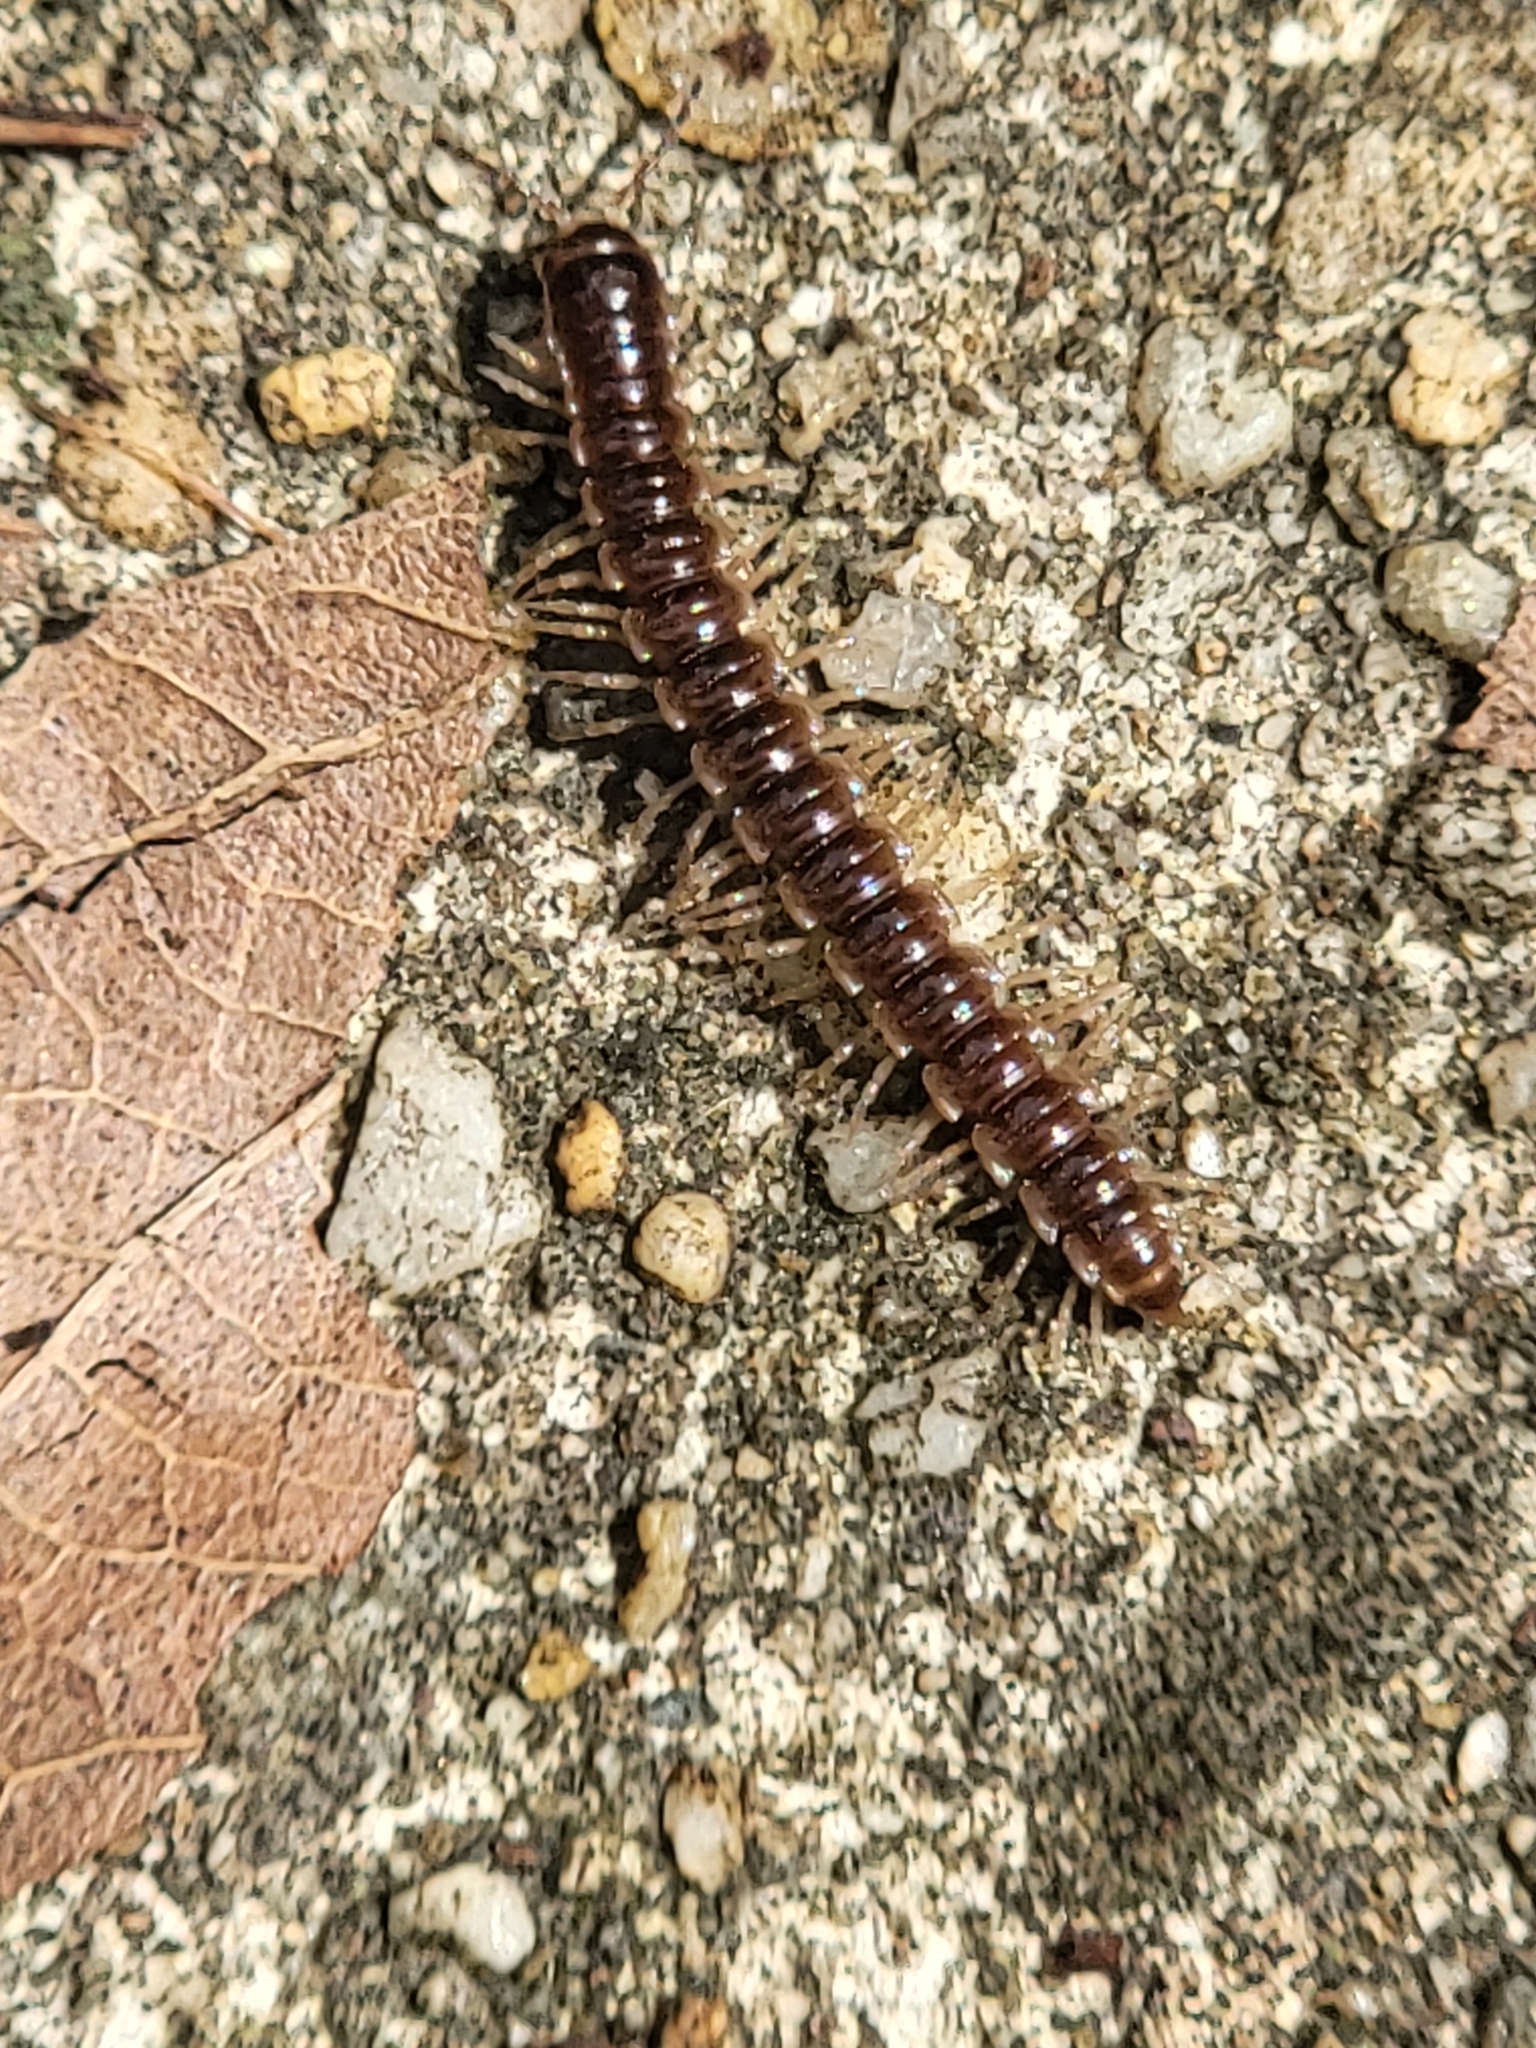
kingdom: Animalia
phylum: Arthropoda
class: Diplopoda
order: Polydesmida
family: Paradoxosomatidae
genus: Oxidus
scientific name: Oxidus gracilis
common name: Greenhouse millipede
